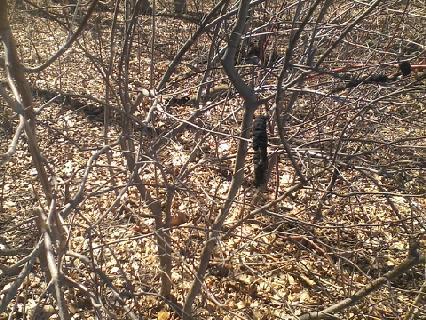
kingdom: Fungi
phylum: Ascomycota
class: Dothideomycetes
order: Venturiales
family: Venturiaceae
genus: Apiosporina
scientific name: Apiosporina morbosa
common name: Black knot
